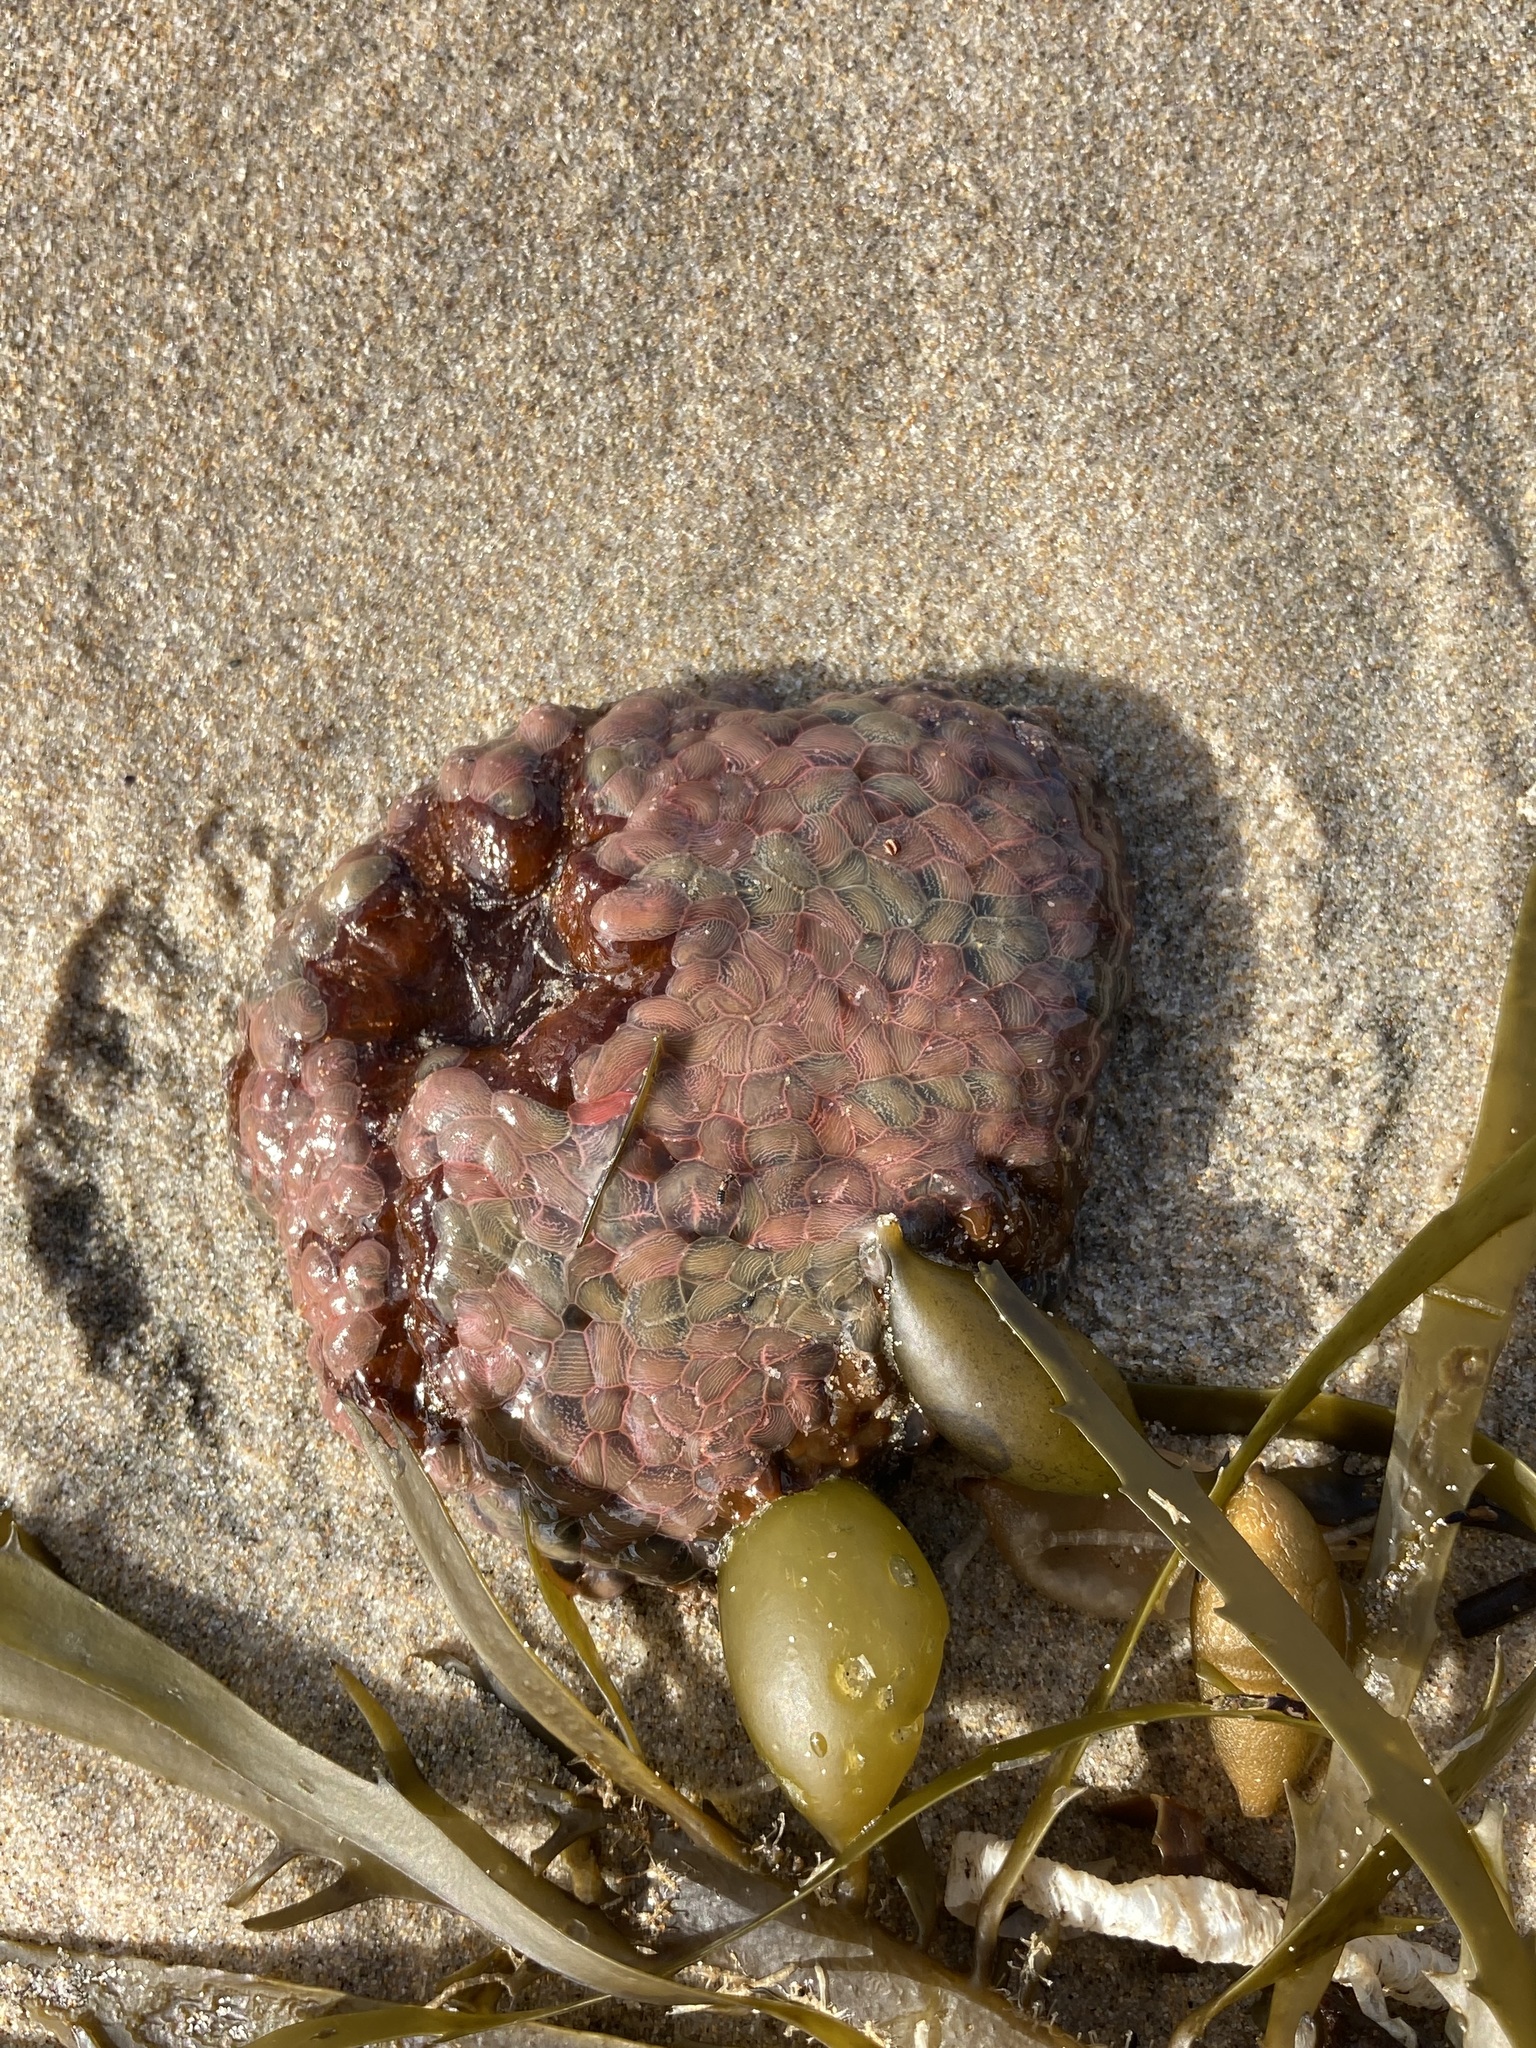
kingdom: Animalia
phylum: Cnidaria
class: Anthozoa
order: Actiniaria
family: Actiniidae
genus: Phlyctenactis
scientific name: Phlyctenactis tuberculosa
